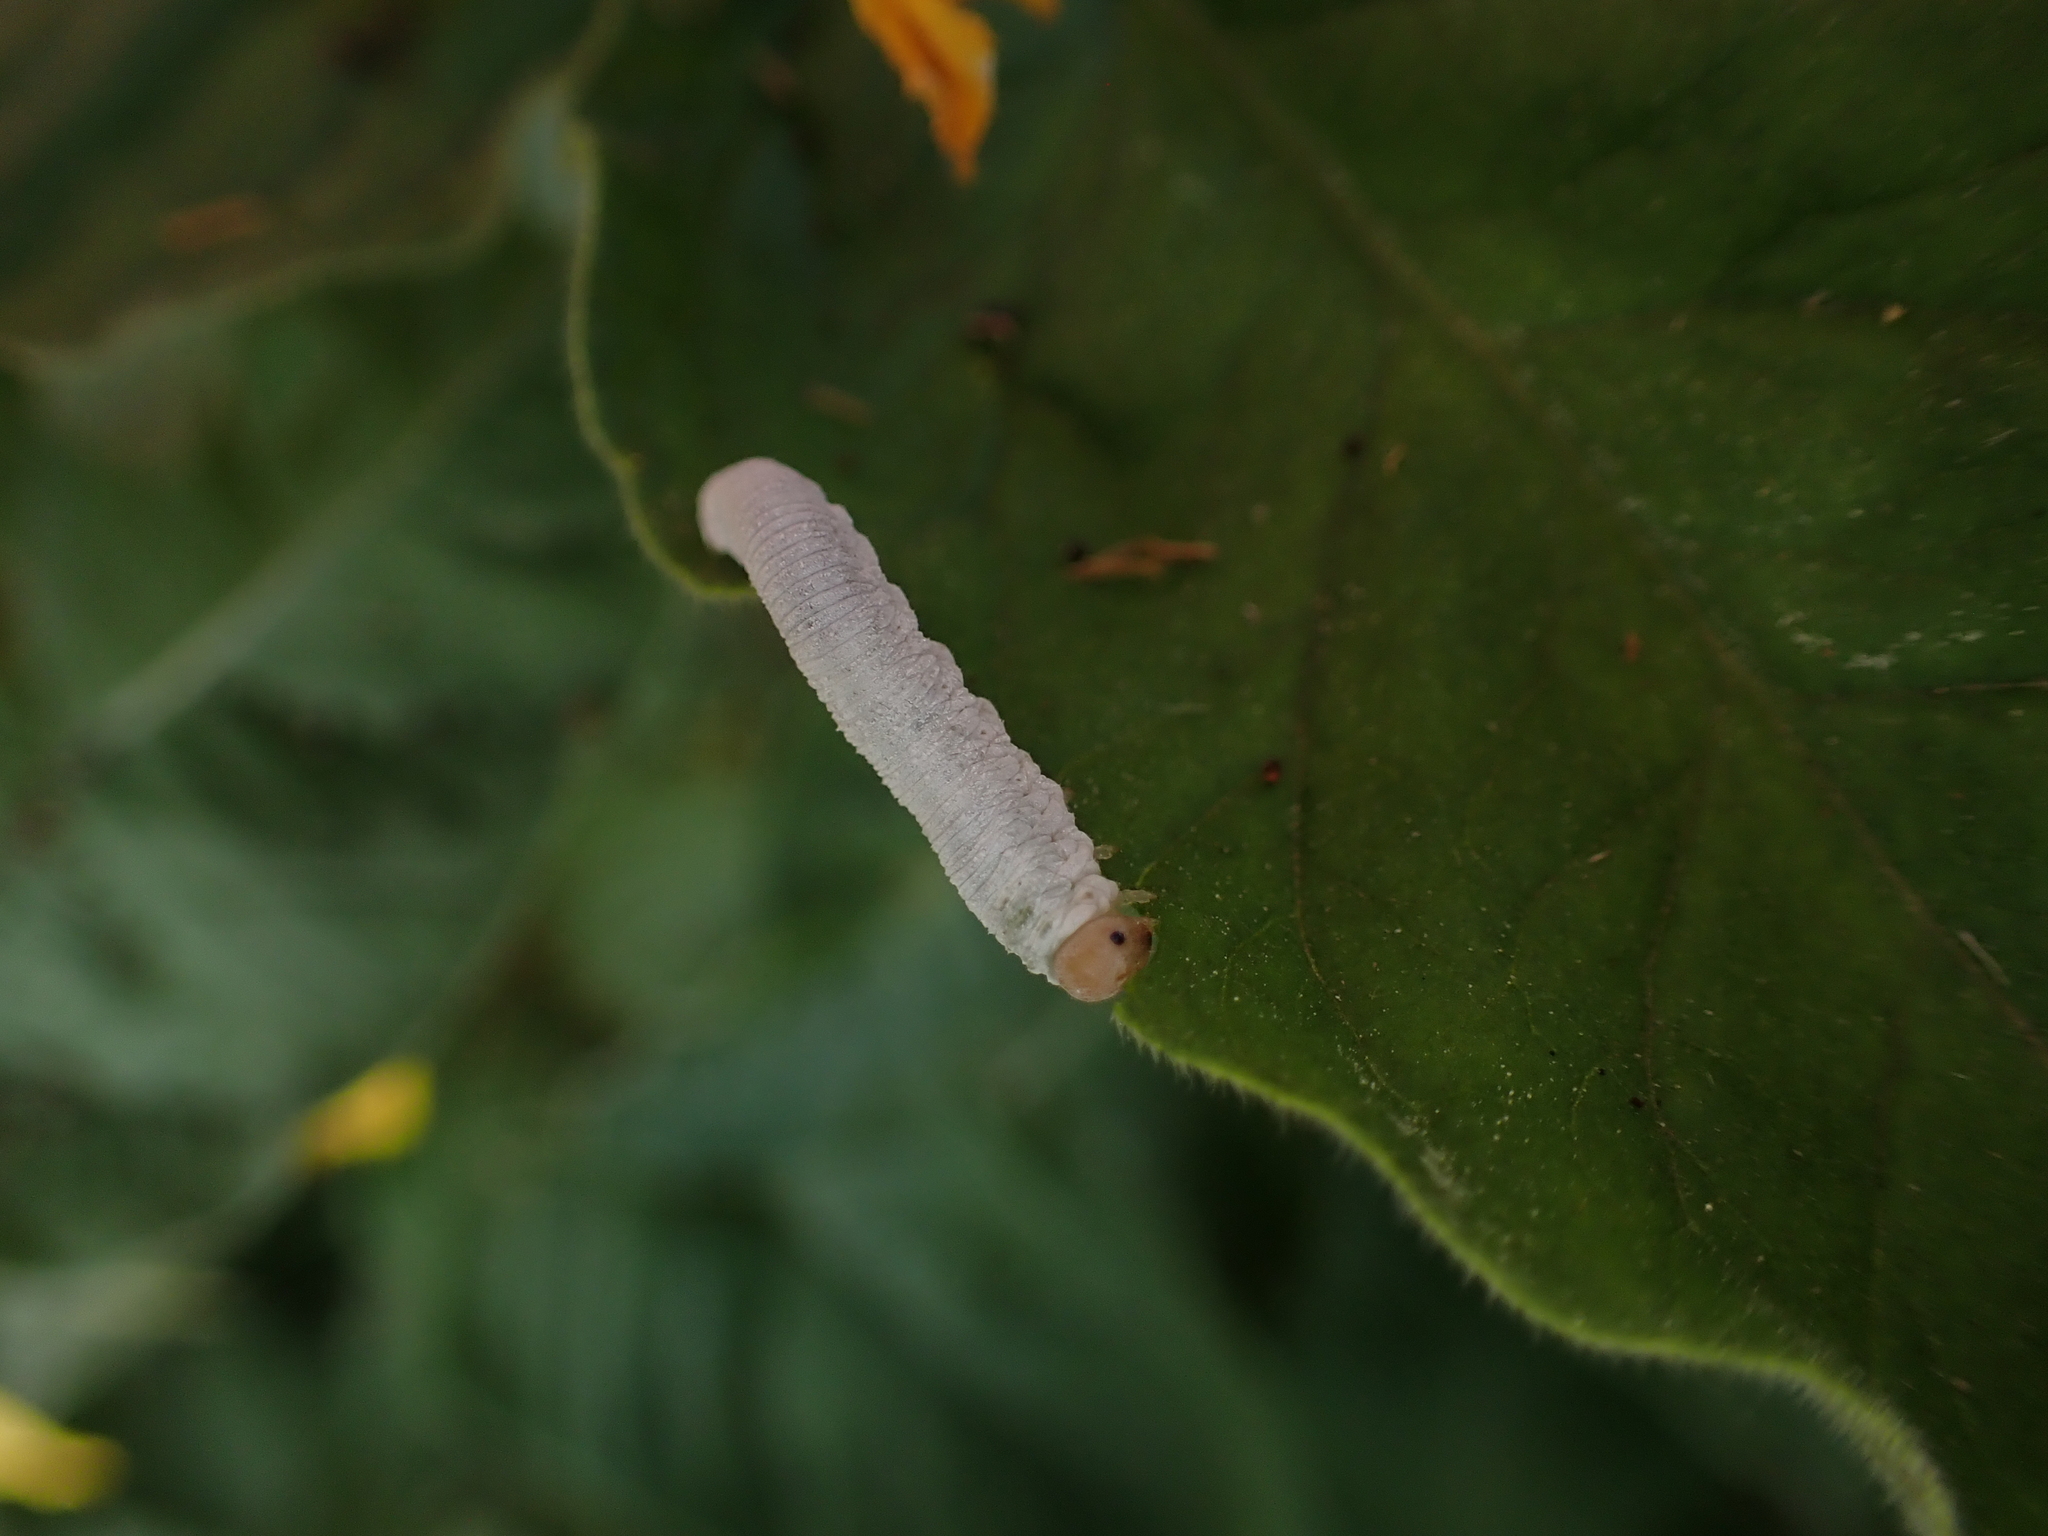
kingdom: Animalia
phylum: Arthropoda
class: Insecta
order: Hymenoptera
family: Tenthredinidae
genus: Monostegia
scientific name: Monostegia nigra
